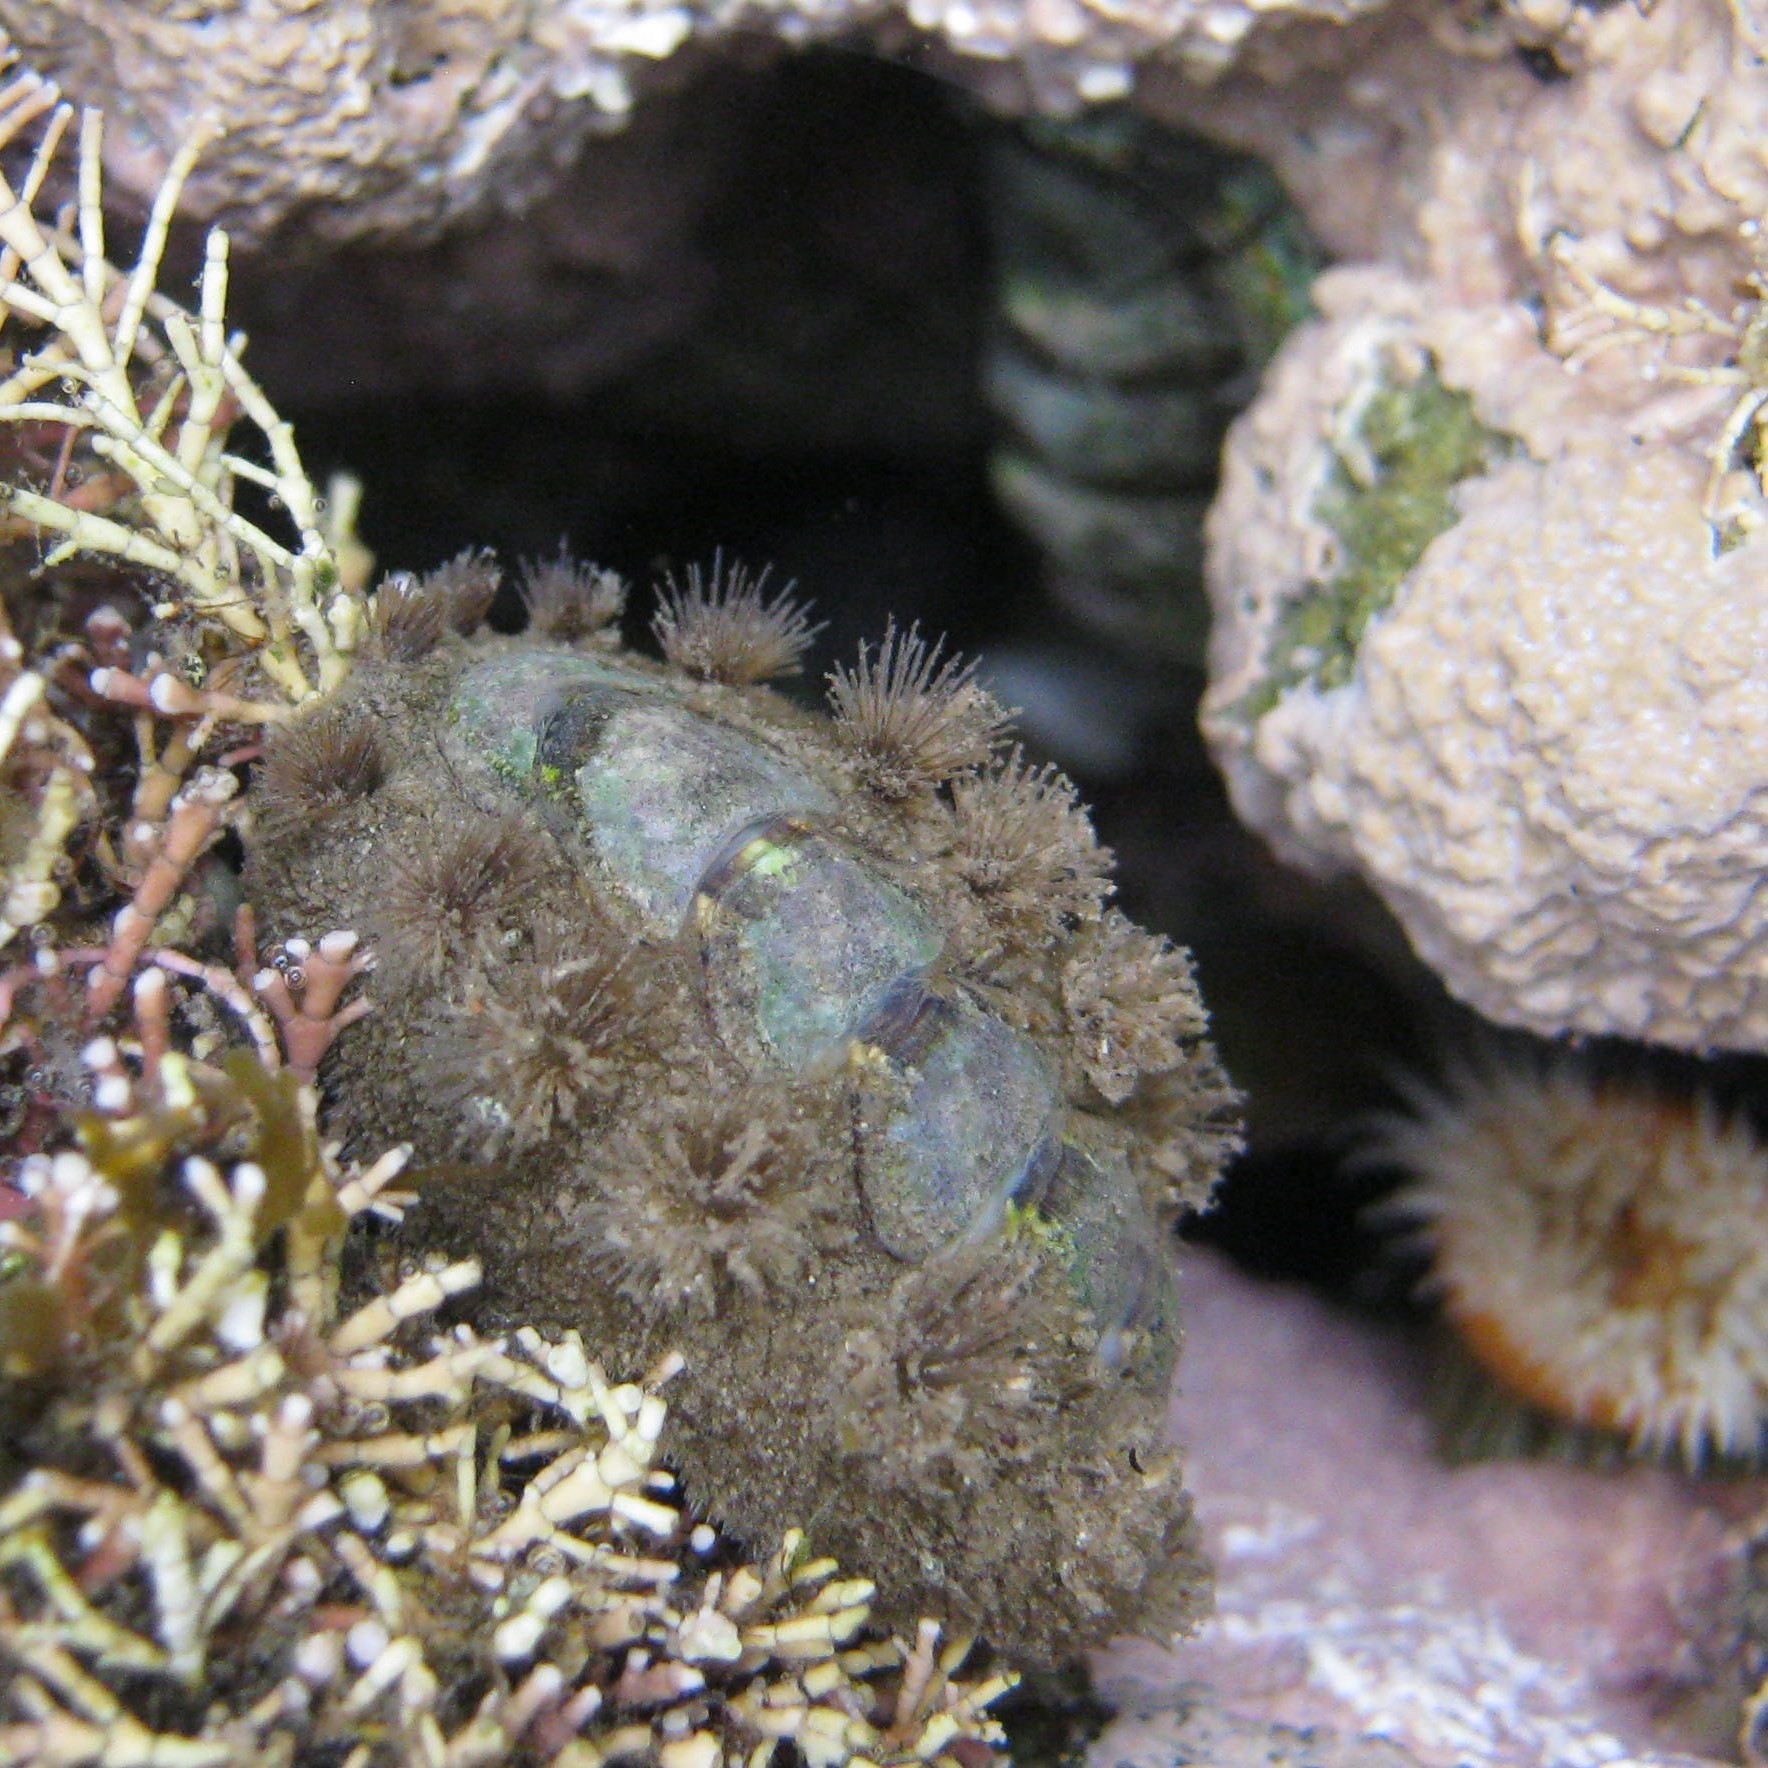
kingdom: Animalia
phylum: Mollusca
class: Polyplacophora
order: Chitonida
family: Acanthochitonidae
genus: Acanthochitona
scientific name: Acanthochitona zelandica
